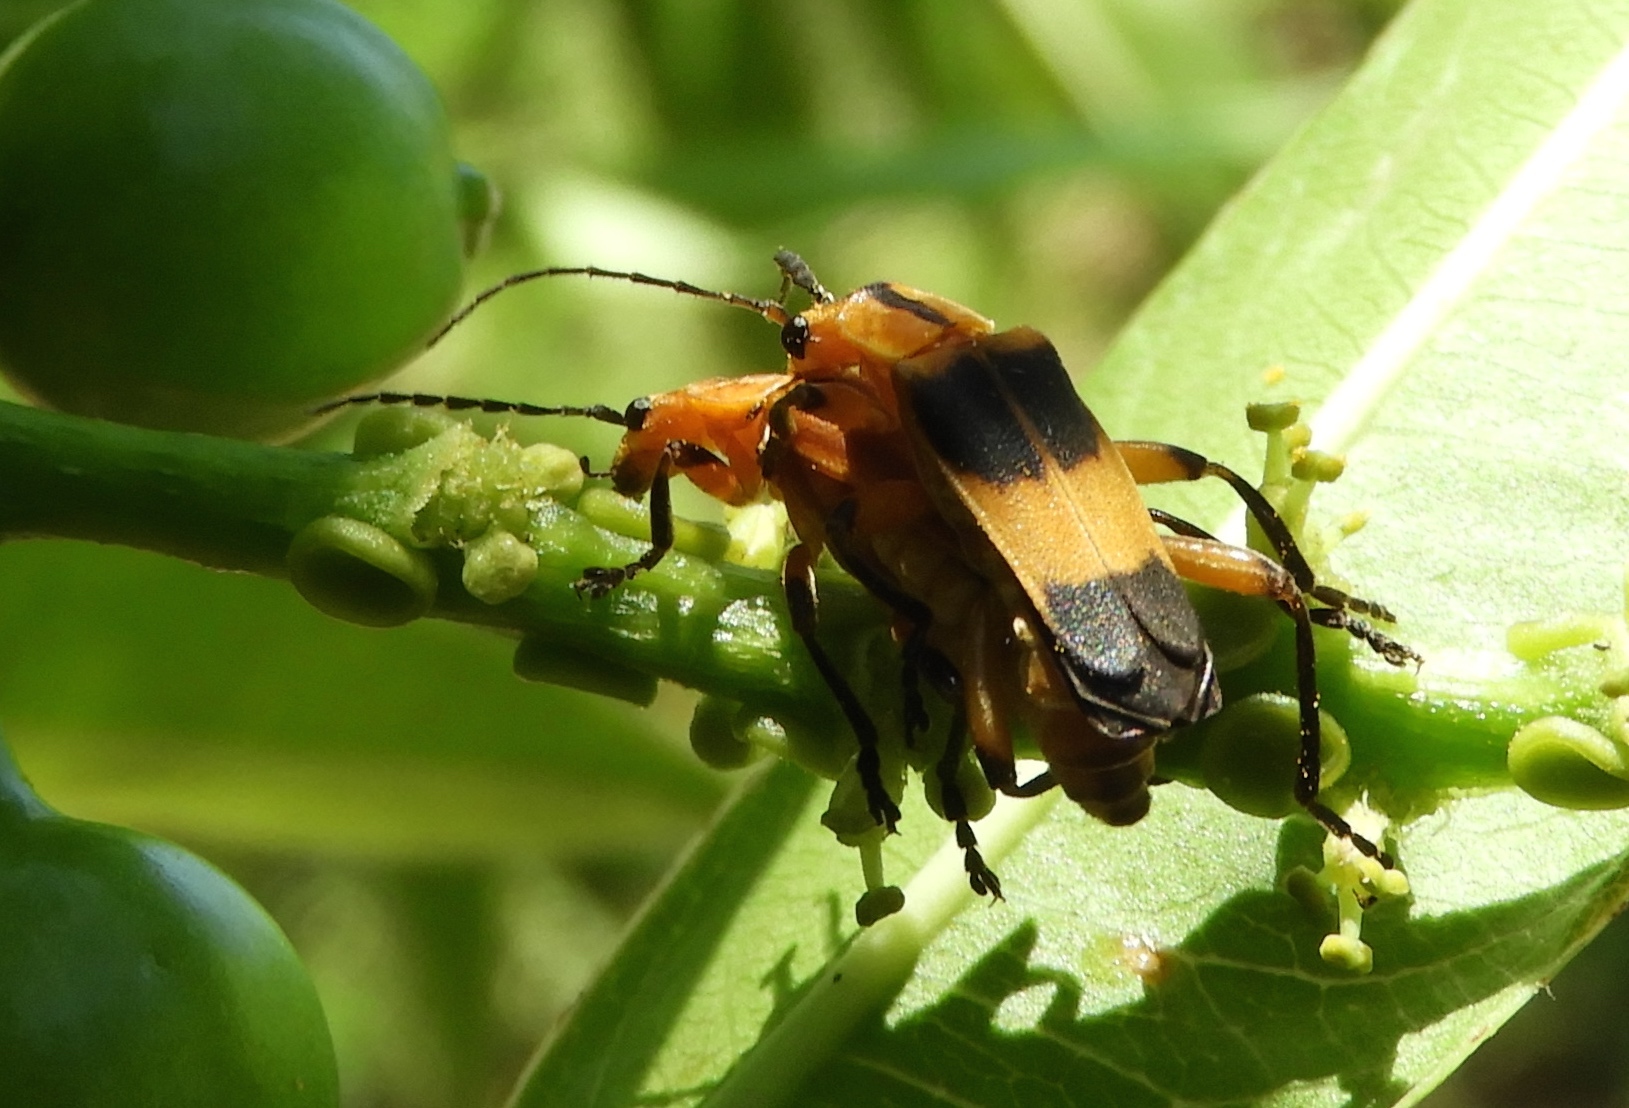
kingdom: Animalia
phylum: Arthropoda
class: Insecta
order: Coleoptera
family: Cantharidae
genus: Daiphron
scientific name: Daiphron proteum
